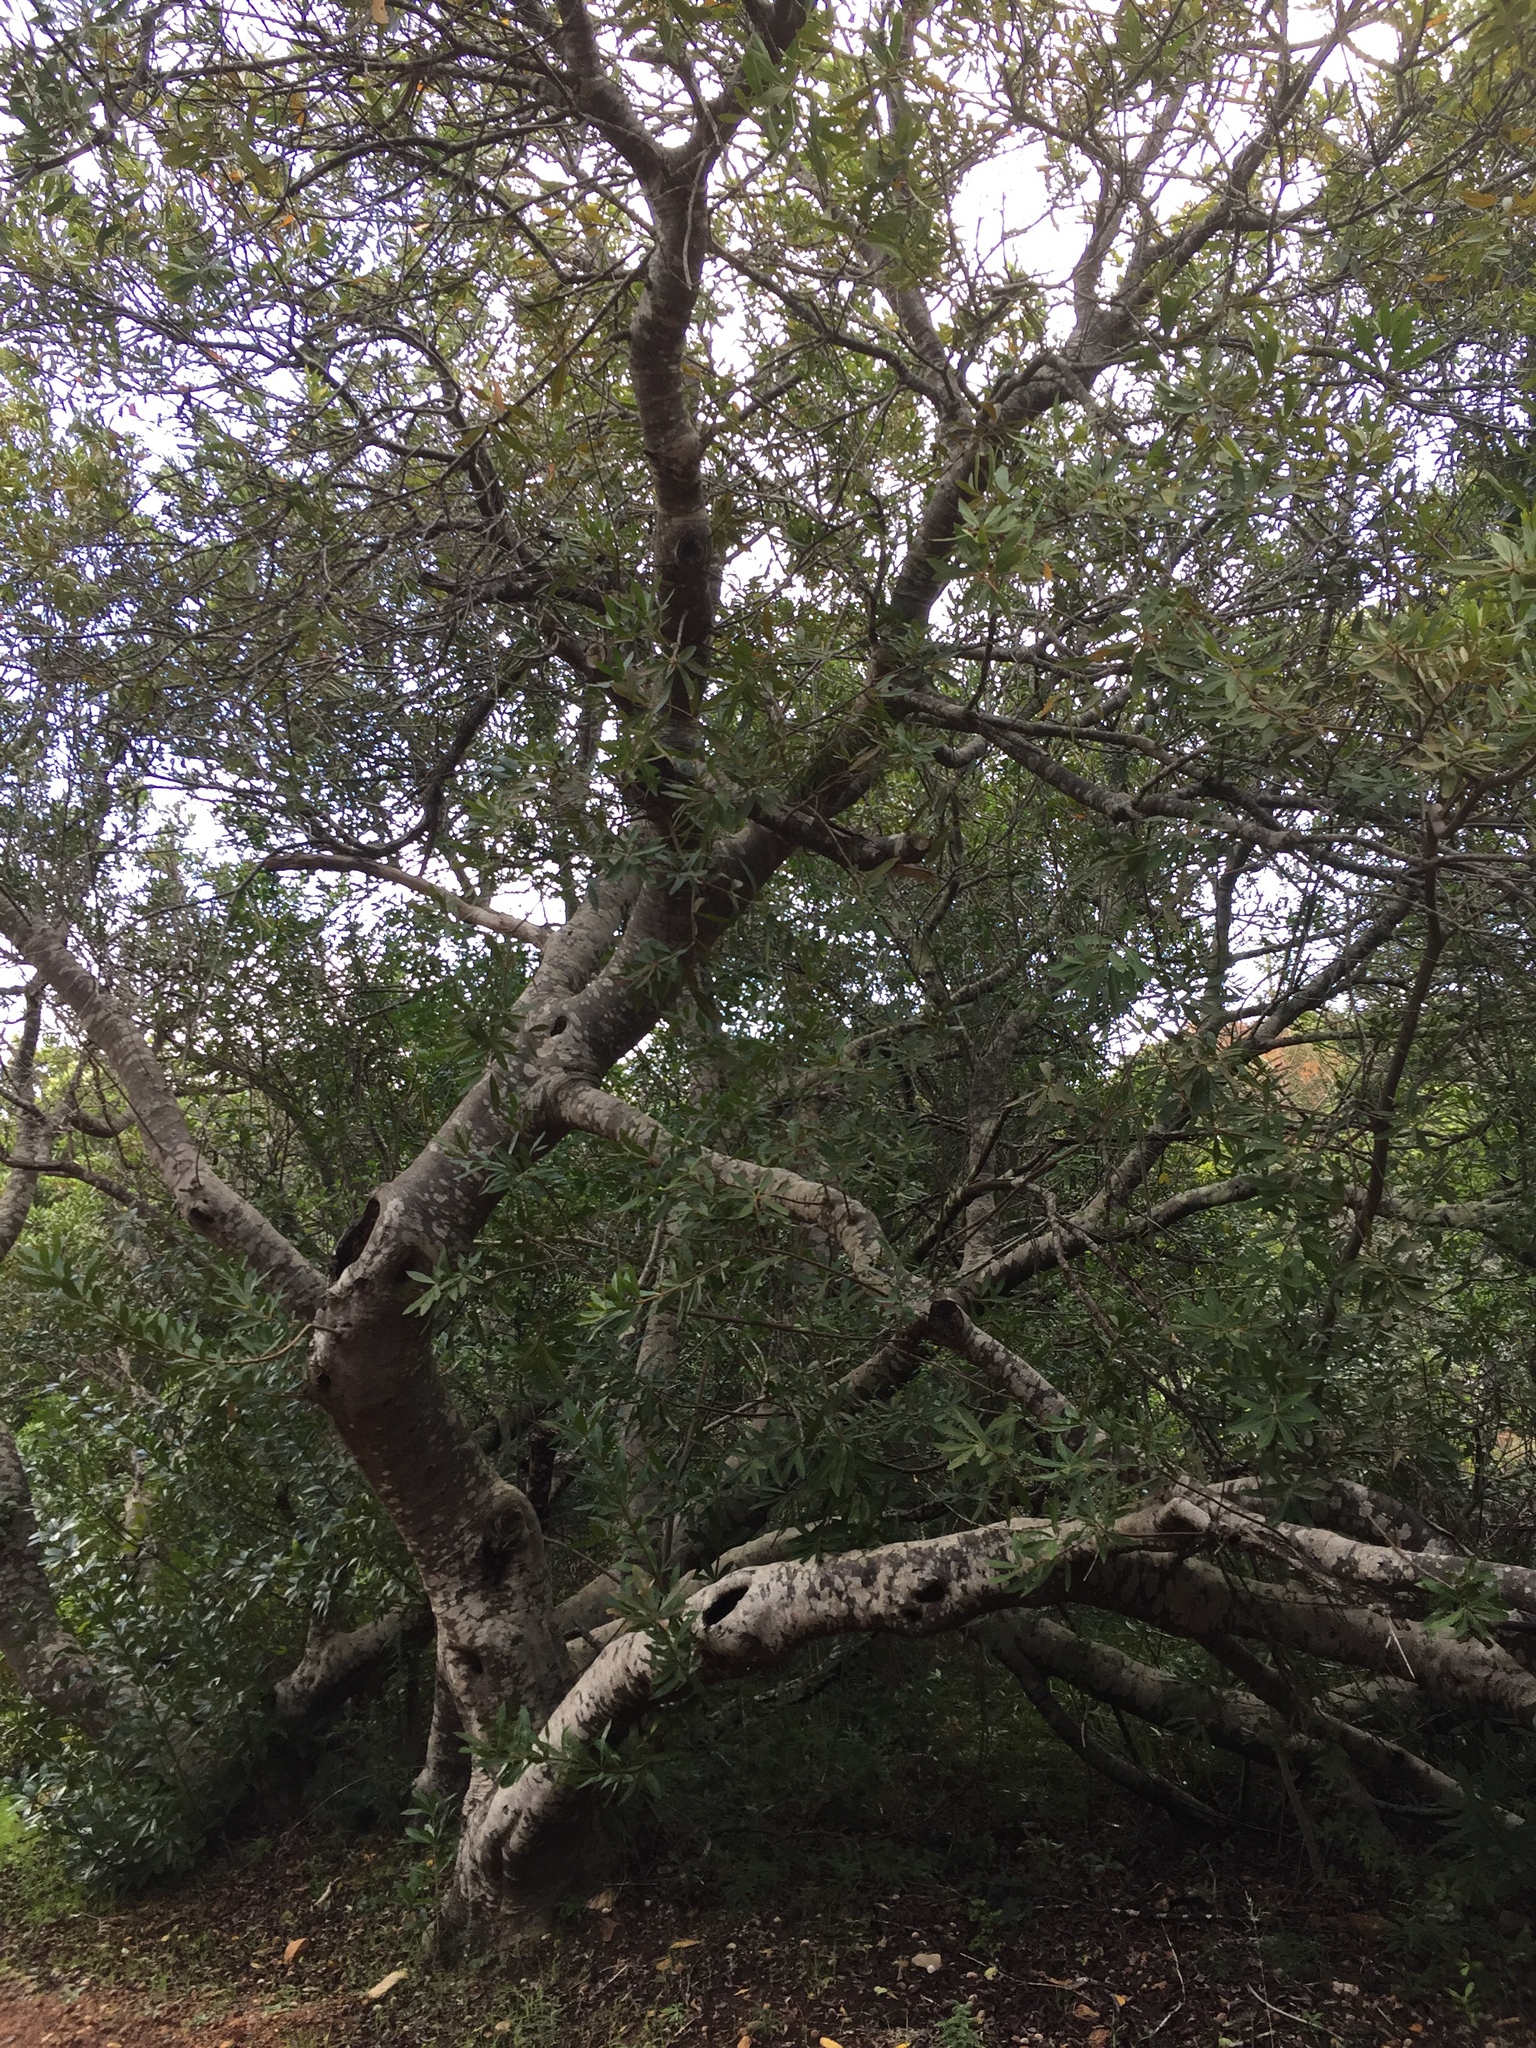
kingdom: Plantae
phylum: Tracheophyta
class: Magnoliopsida
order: Proteales
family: Proteaceae
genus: Brabejum
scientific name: Brabejum stellatifolium
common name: Wild almond
